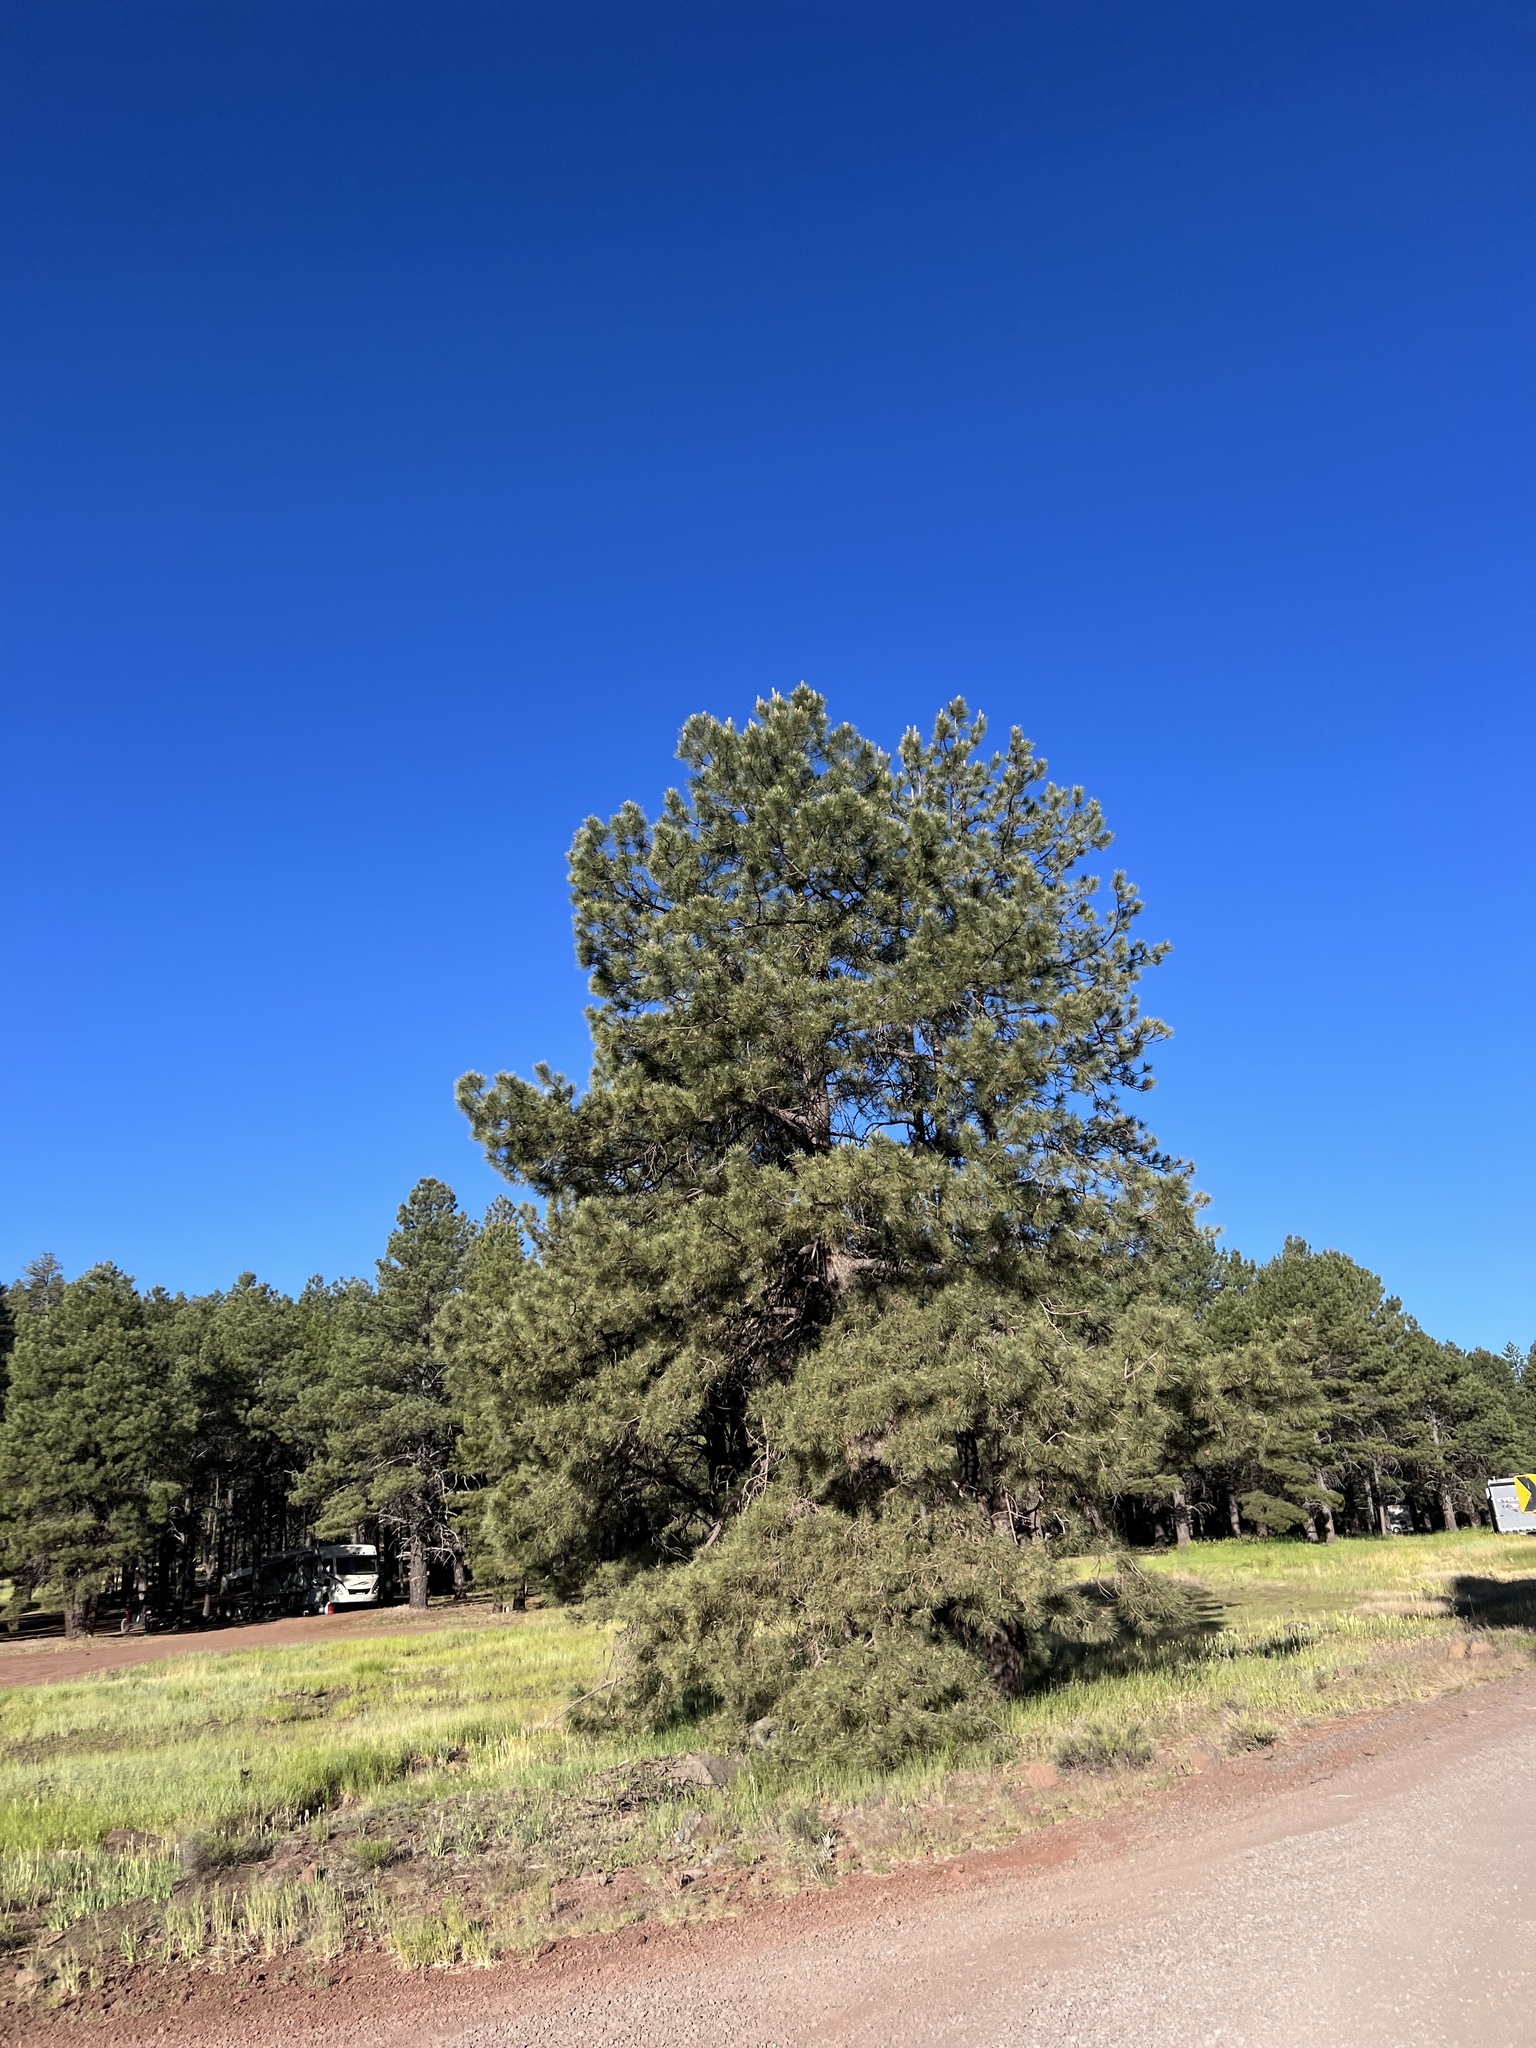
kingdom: Plantae
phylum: Tracheophyta
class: Pinopsida
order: Pinales
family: Pinaceae
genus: Pinus
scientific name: Pinus ponderosa
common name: Western yellow-pine
